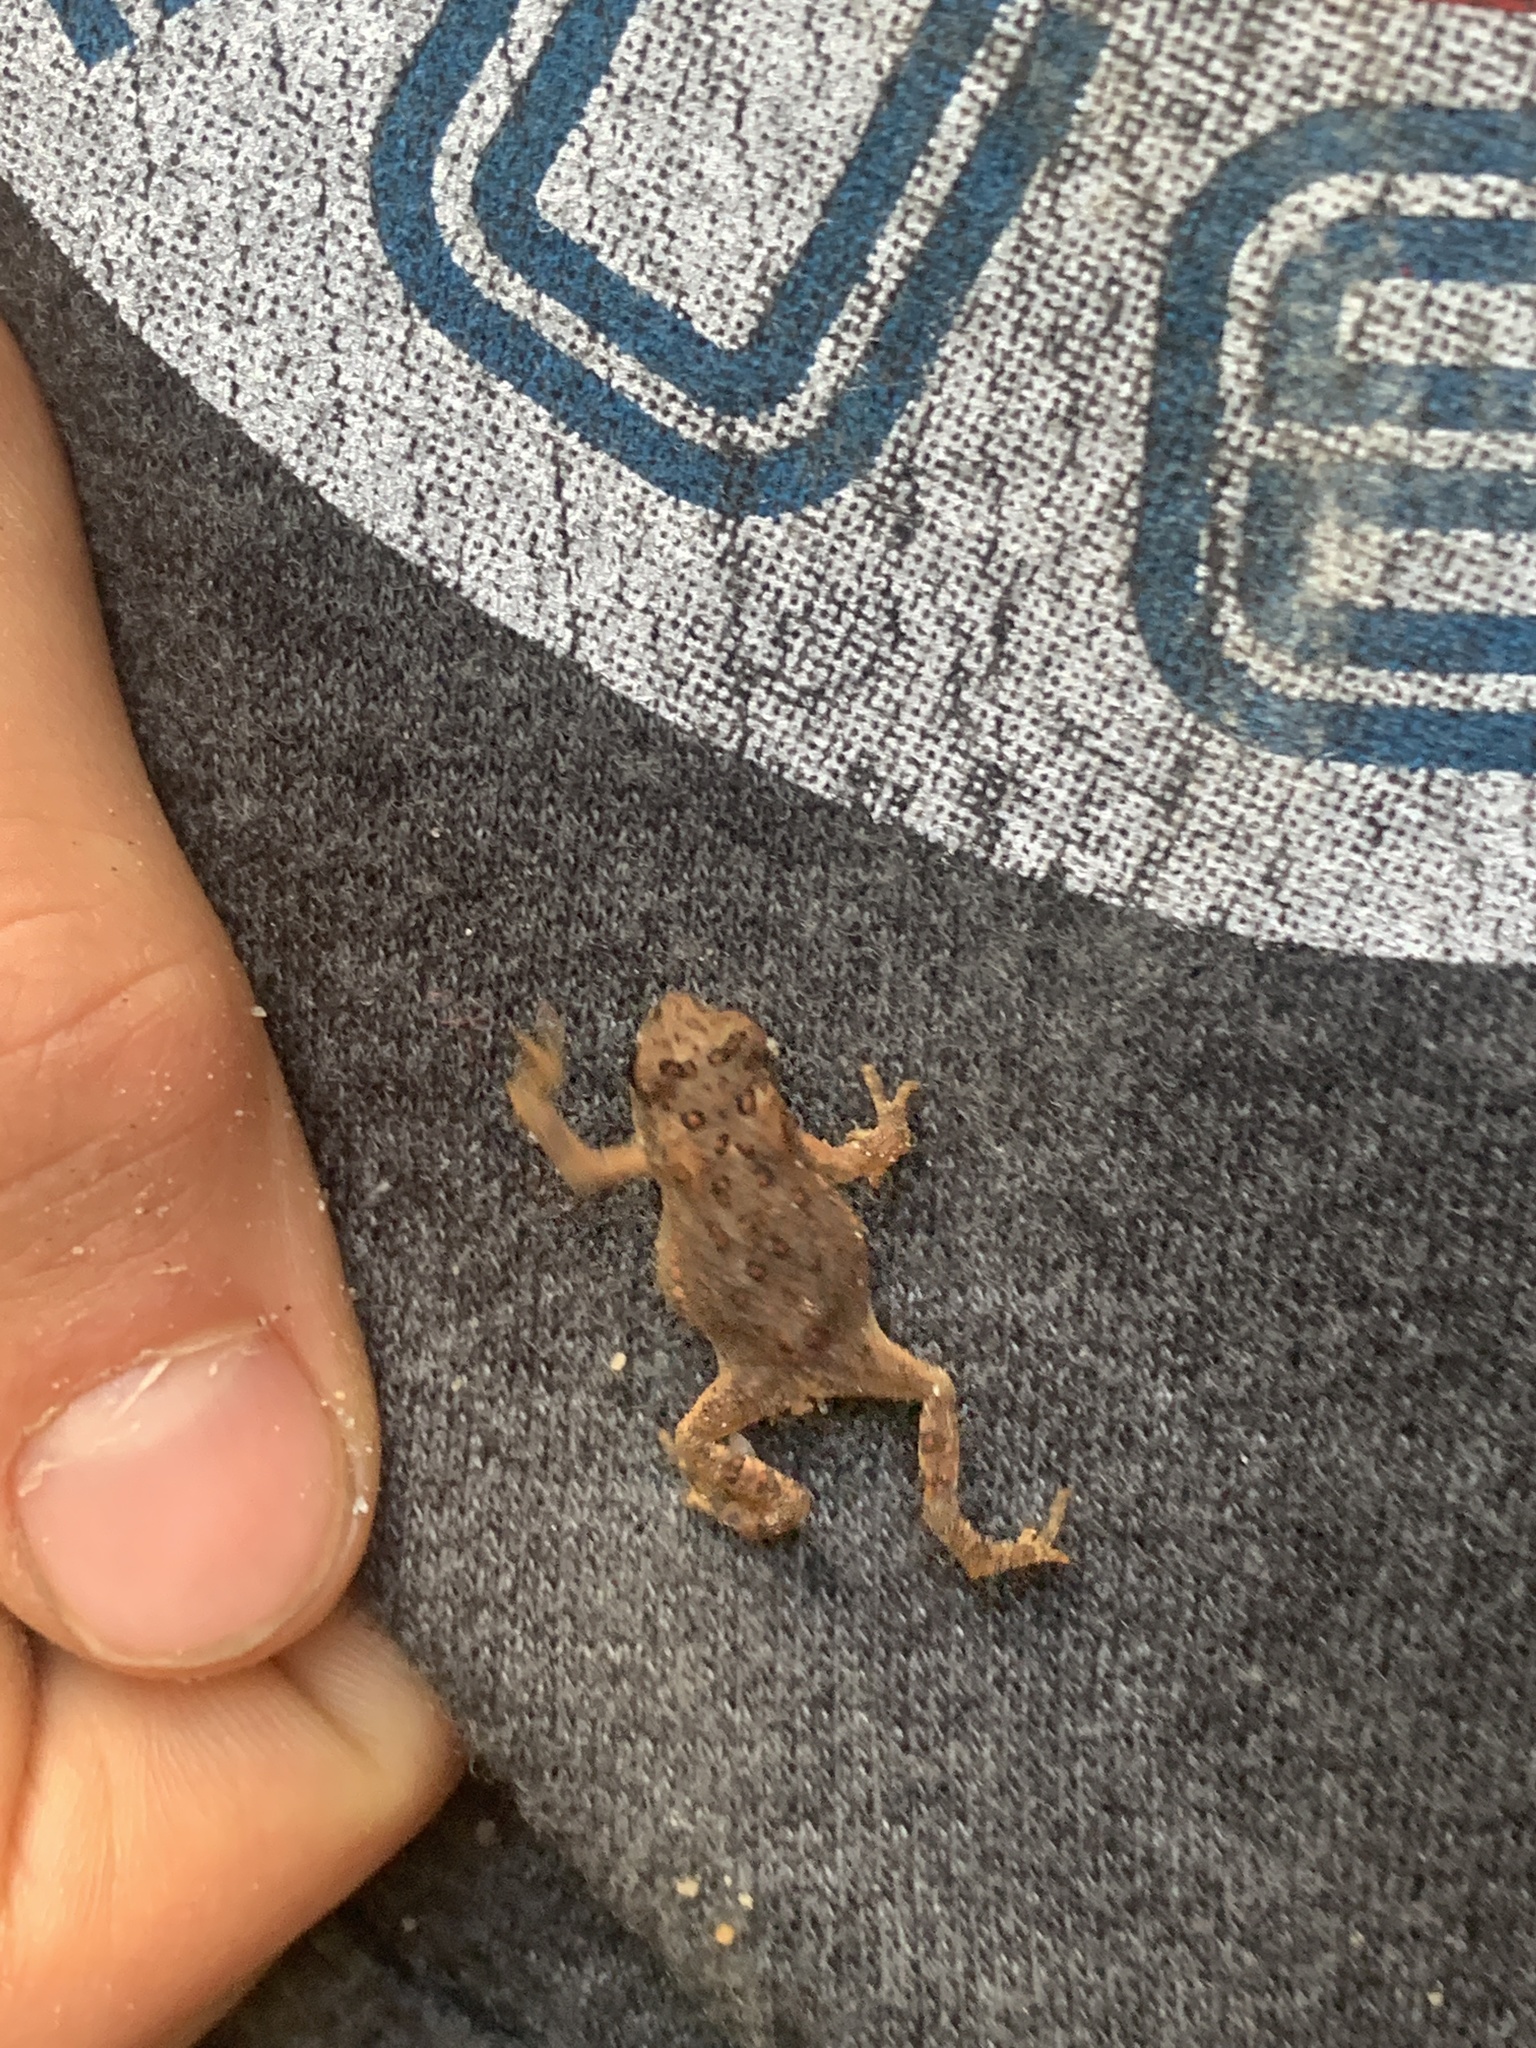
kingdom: Animalia
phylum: Chordata
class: Amphibia
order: Anura
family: Bufonidae
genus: Anaxyrus
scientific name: Anaxyrus americanus
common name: American toad
